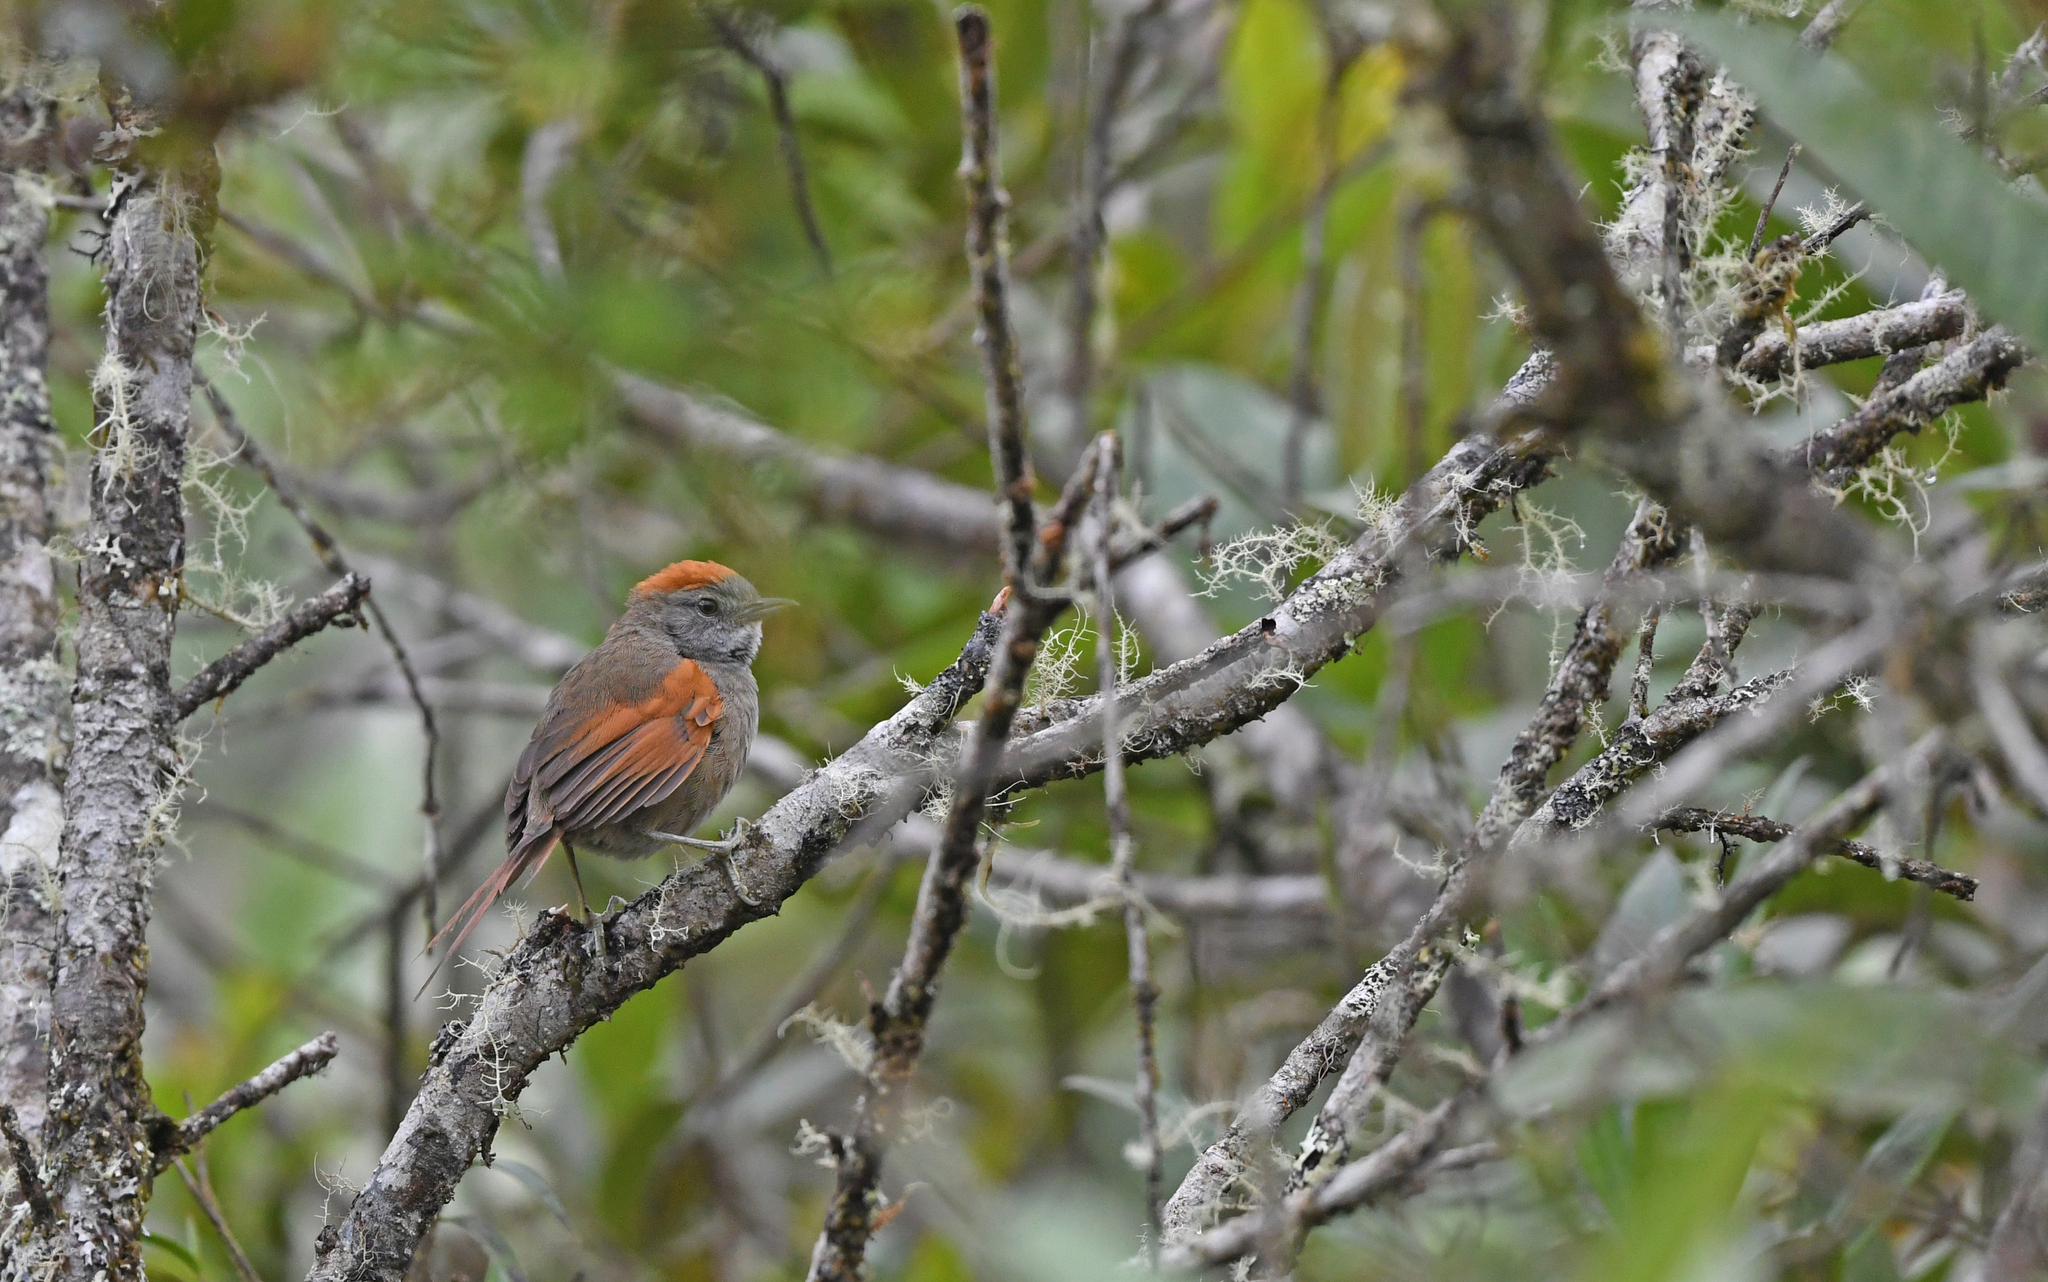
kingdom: Animalia
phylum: Chordata
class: Aves
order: Passeriformes
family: Furnariidae
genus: Synallaxis
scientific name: Synallaxis azarae
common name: Azara's spinetail
